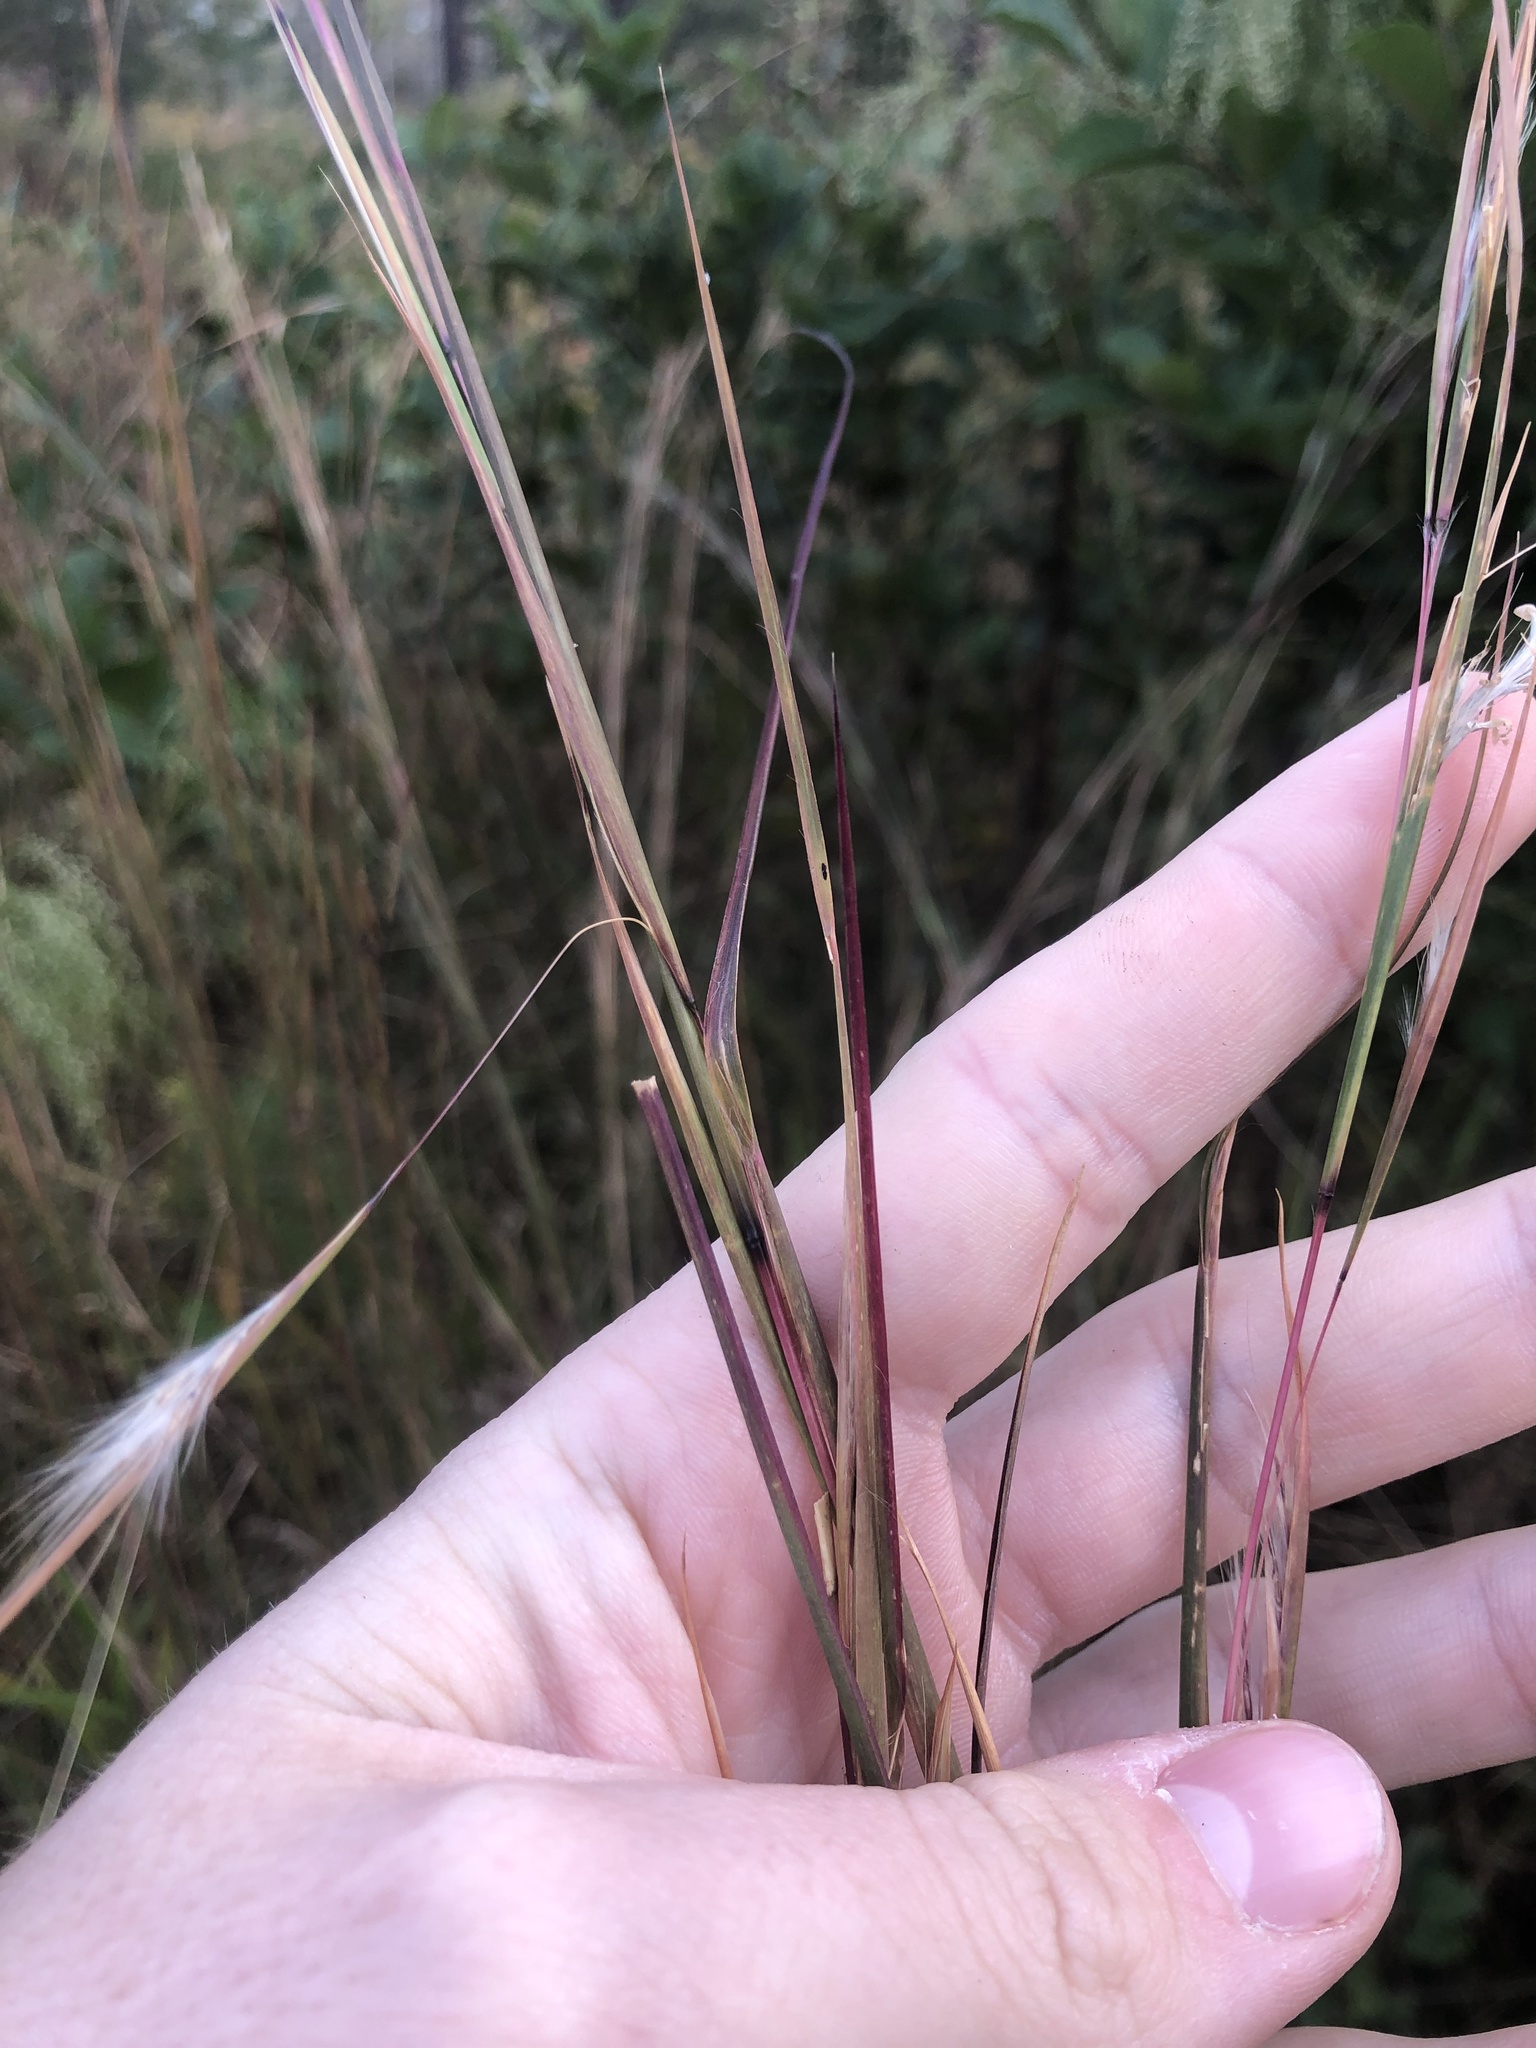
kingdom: Plantae
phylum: Tracheophyta
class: Liliopsida
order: Poales
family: Poaceae
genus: Andropogon
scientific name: Andropogon virginicus
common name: Broomsedge bluestem
